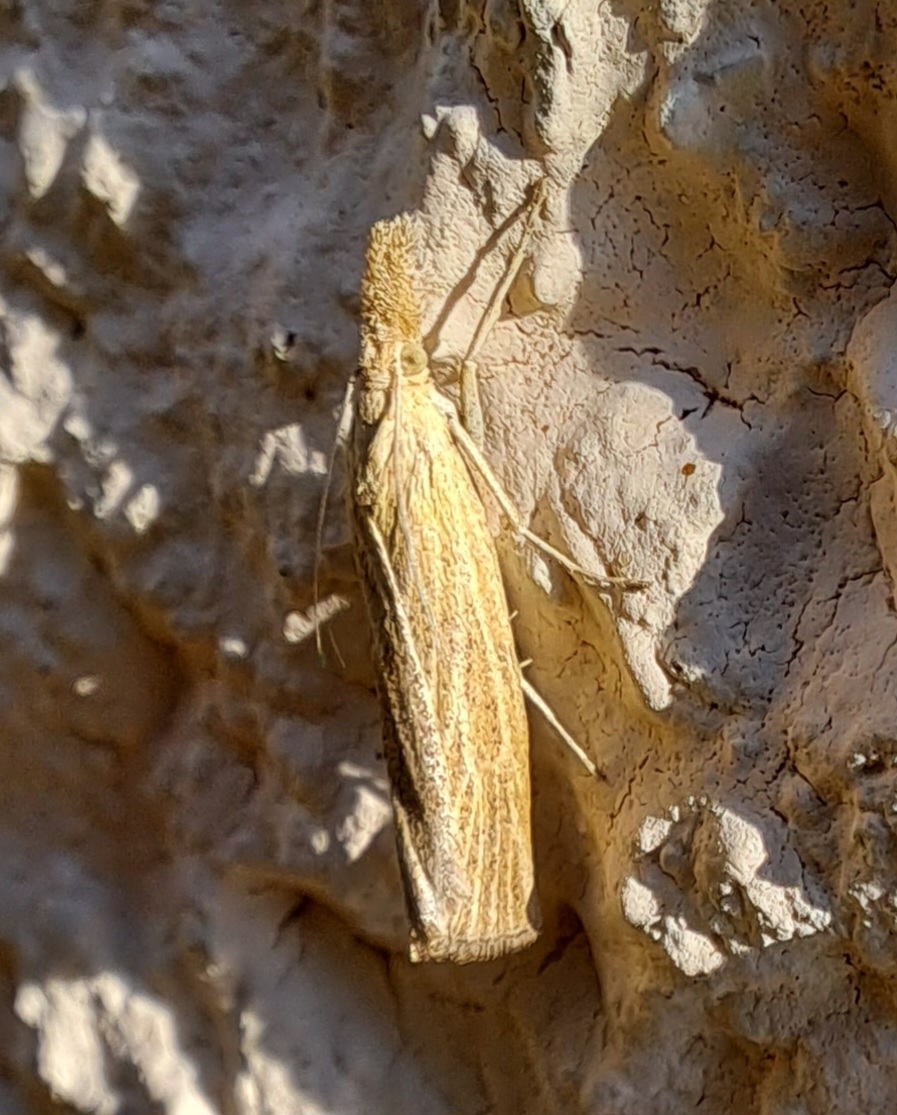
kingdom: Animalia
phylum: Arthropoda
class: Insecta
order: Lepidoptera
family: Crambidae
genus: Pediasia
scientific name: Pediasia luteella
